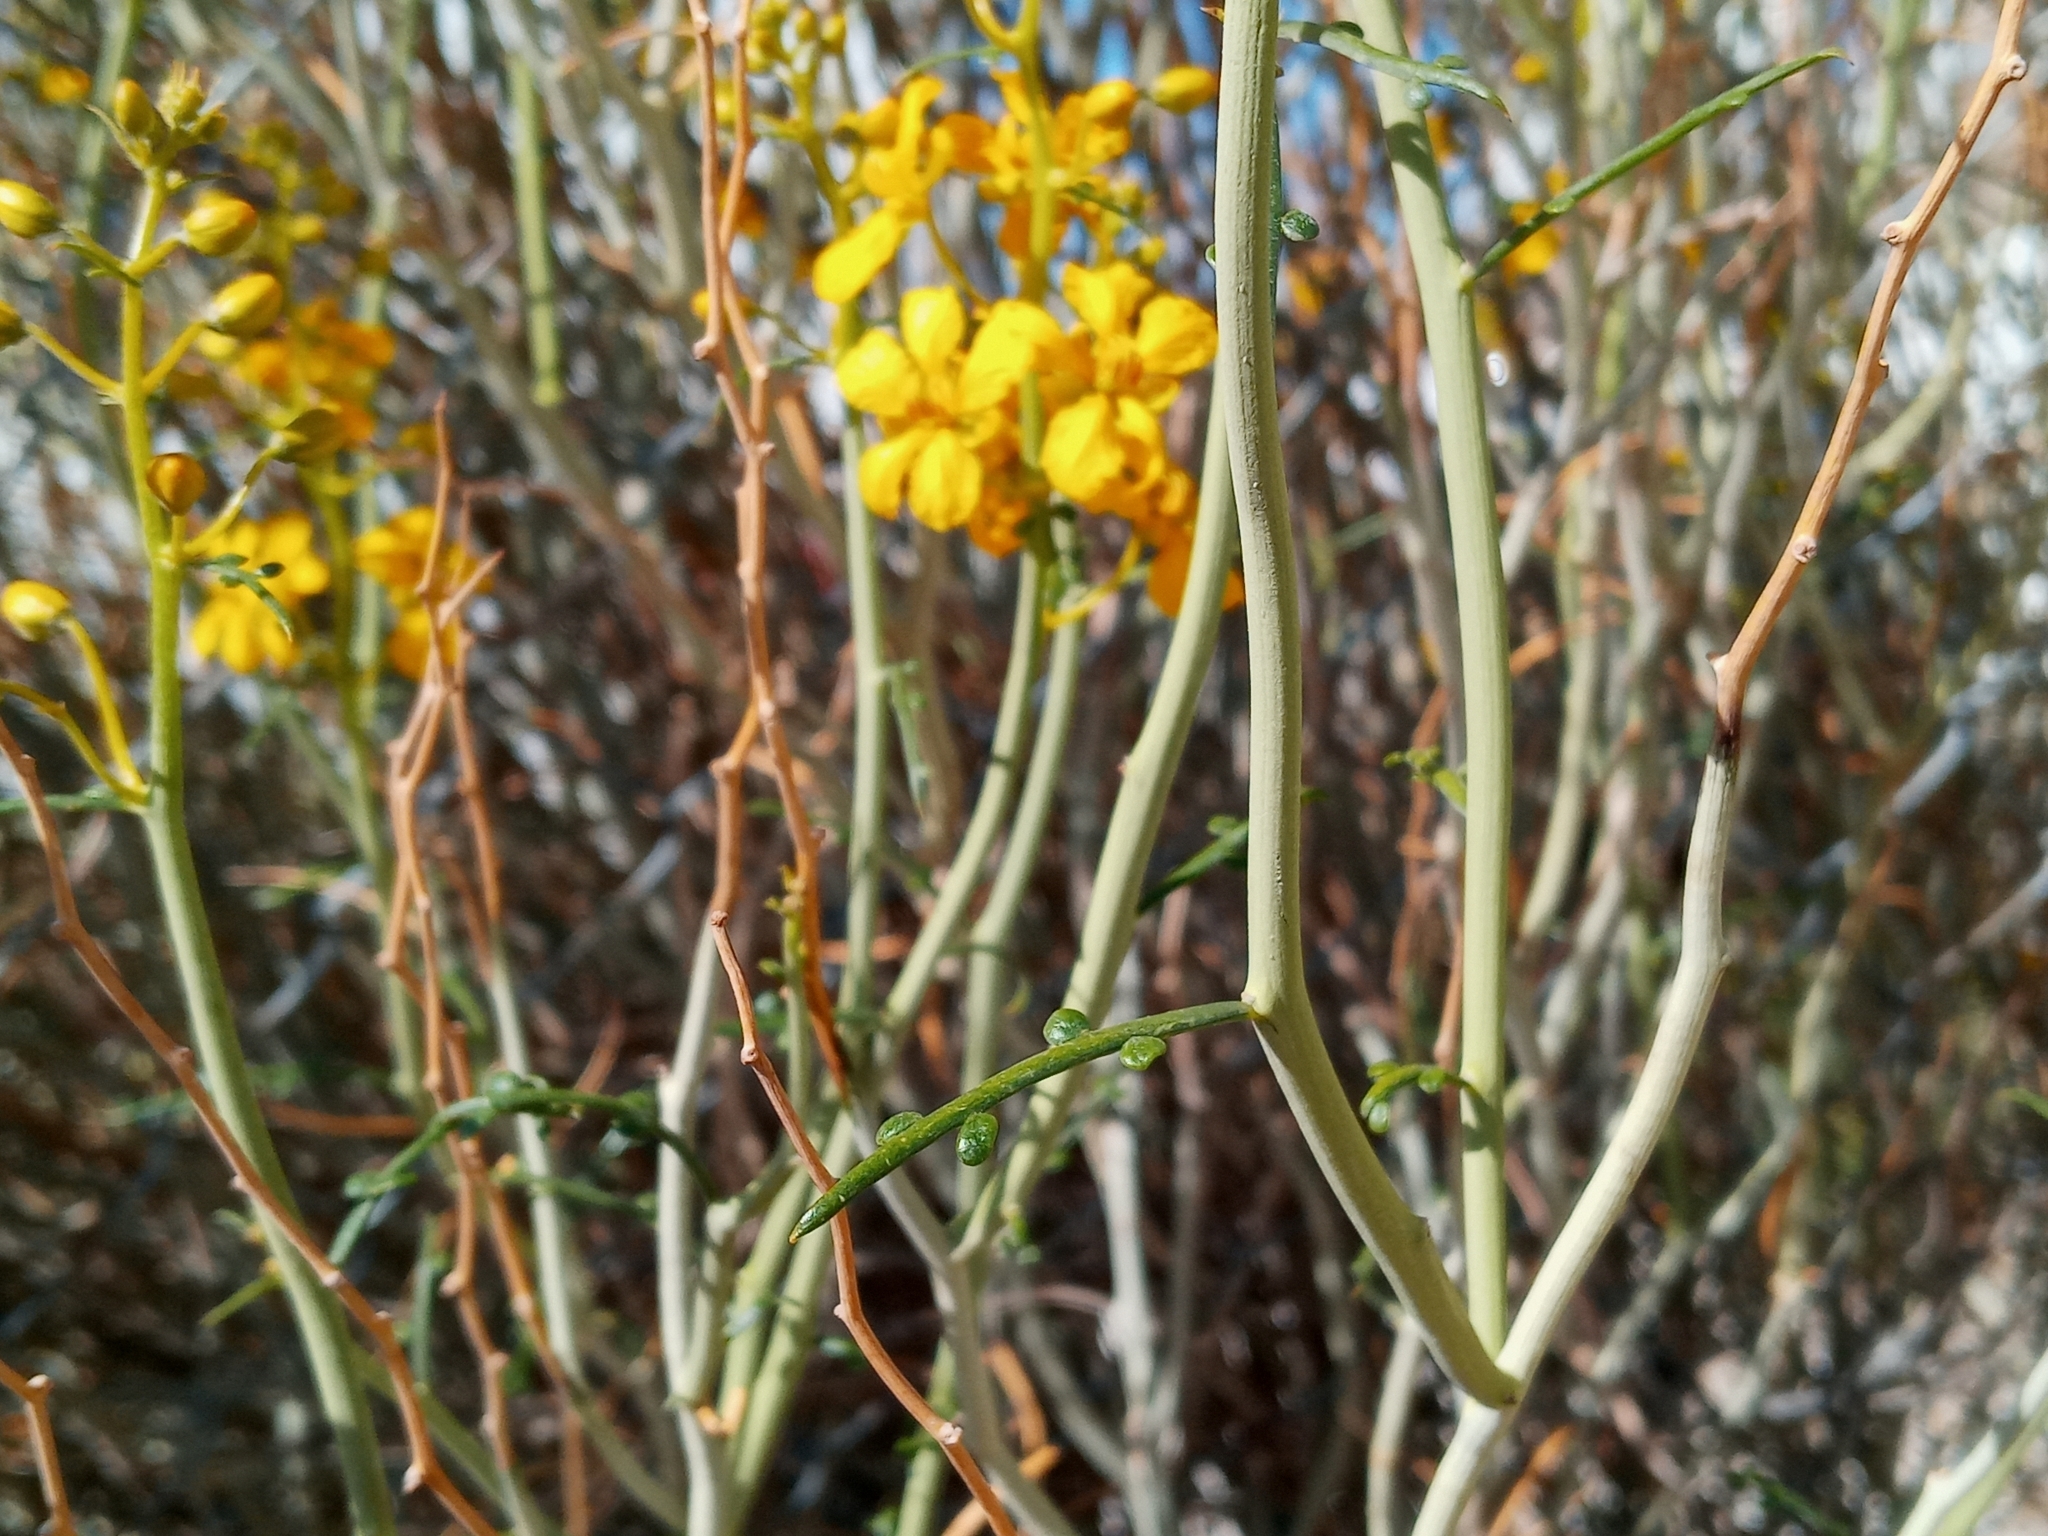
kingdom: Plantae
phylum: Tracheophyta
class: Magnoliopsida
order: Fabales
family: Fabaceae
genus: Senna
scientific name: Senna armata
